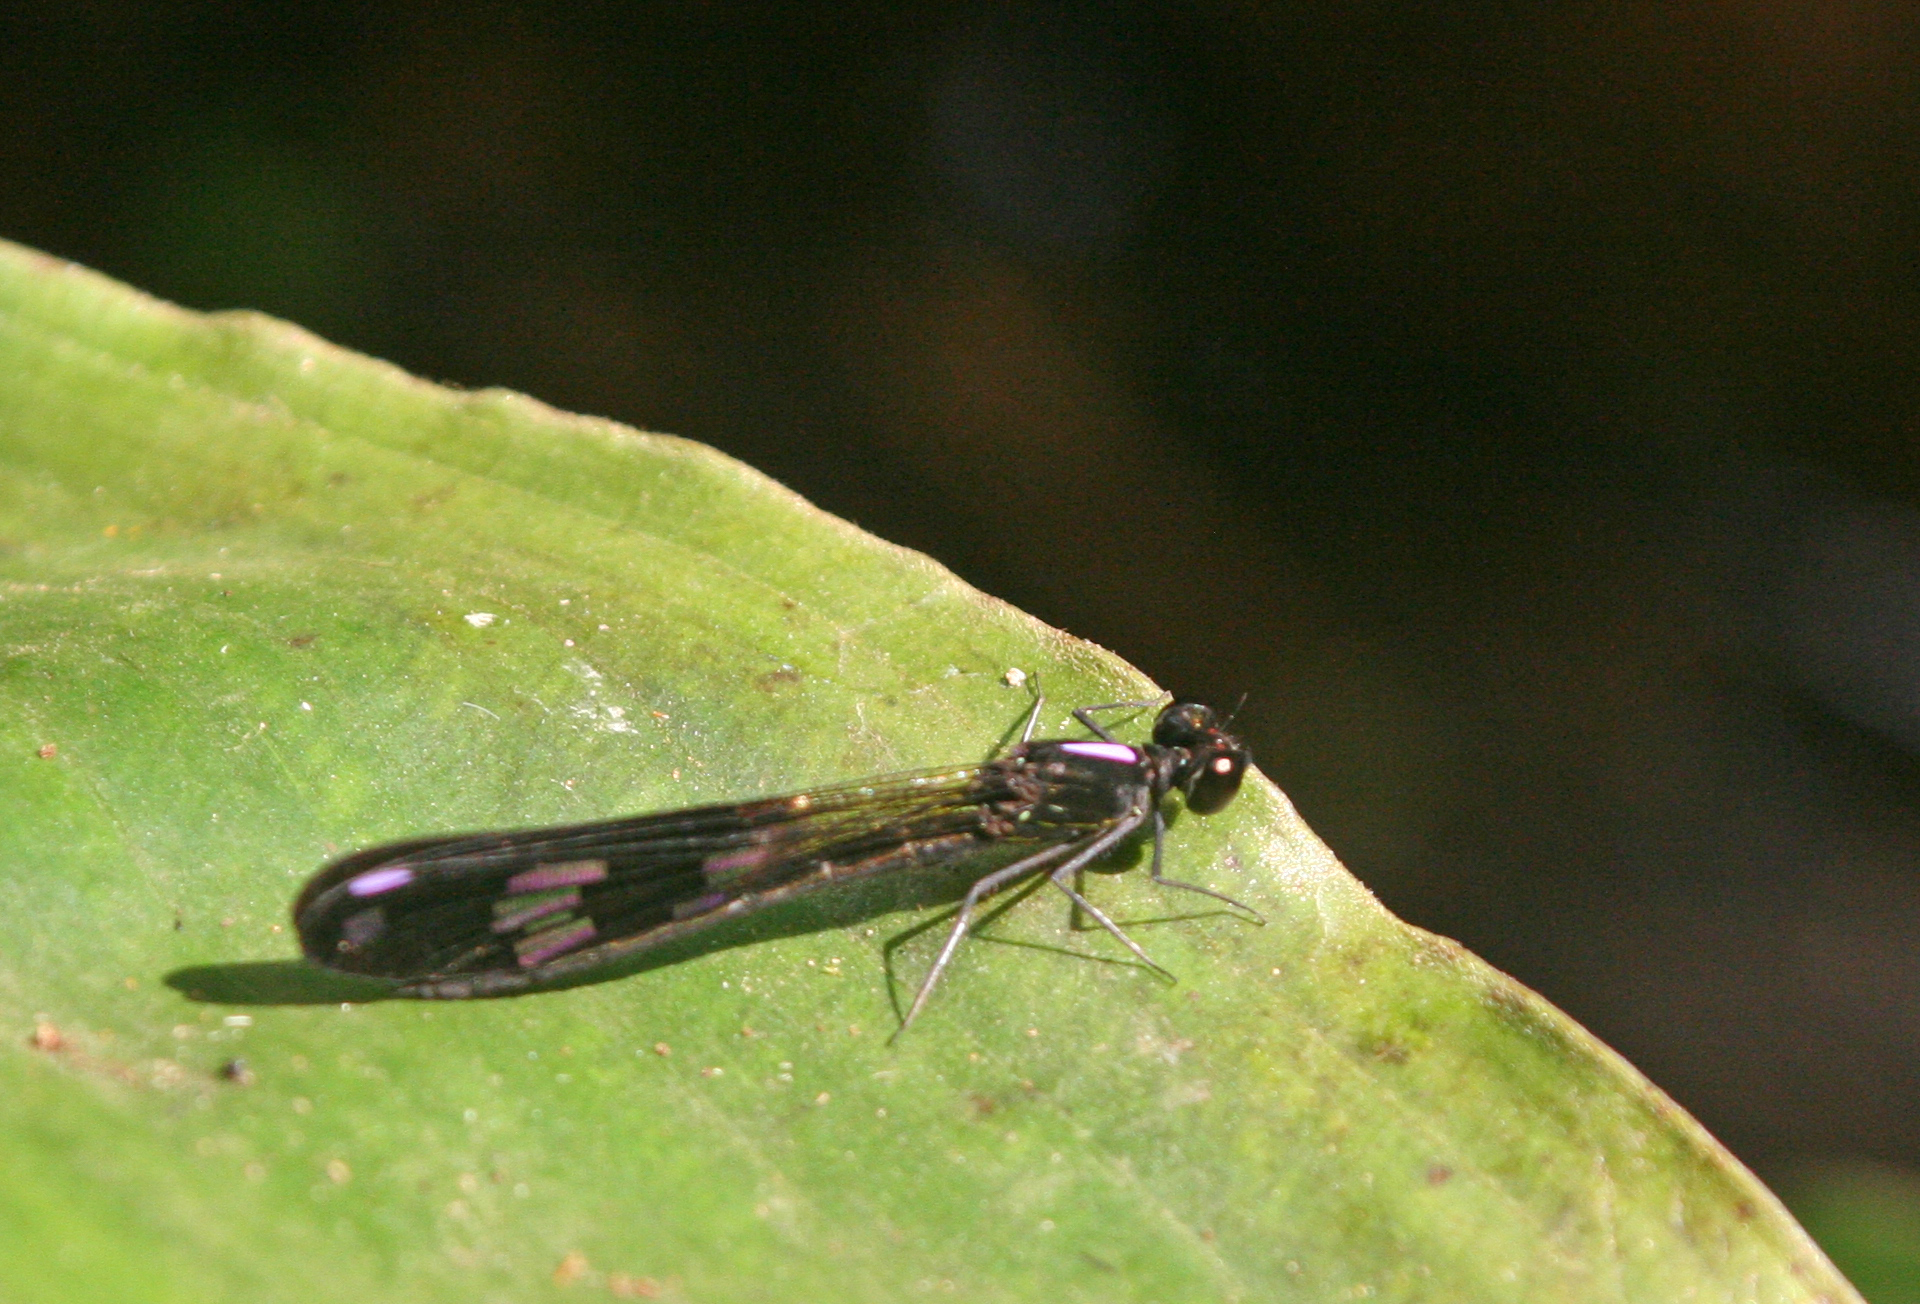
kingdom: Animalia
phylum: Arthropoda
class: Insecta
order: Odonata
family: Chlorocyphidae
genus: Aristocypha
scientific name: Aristocypha fenestrella
